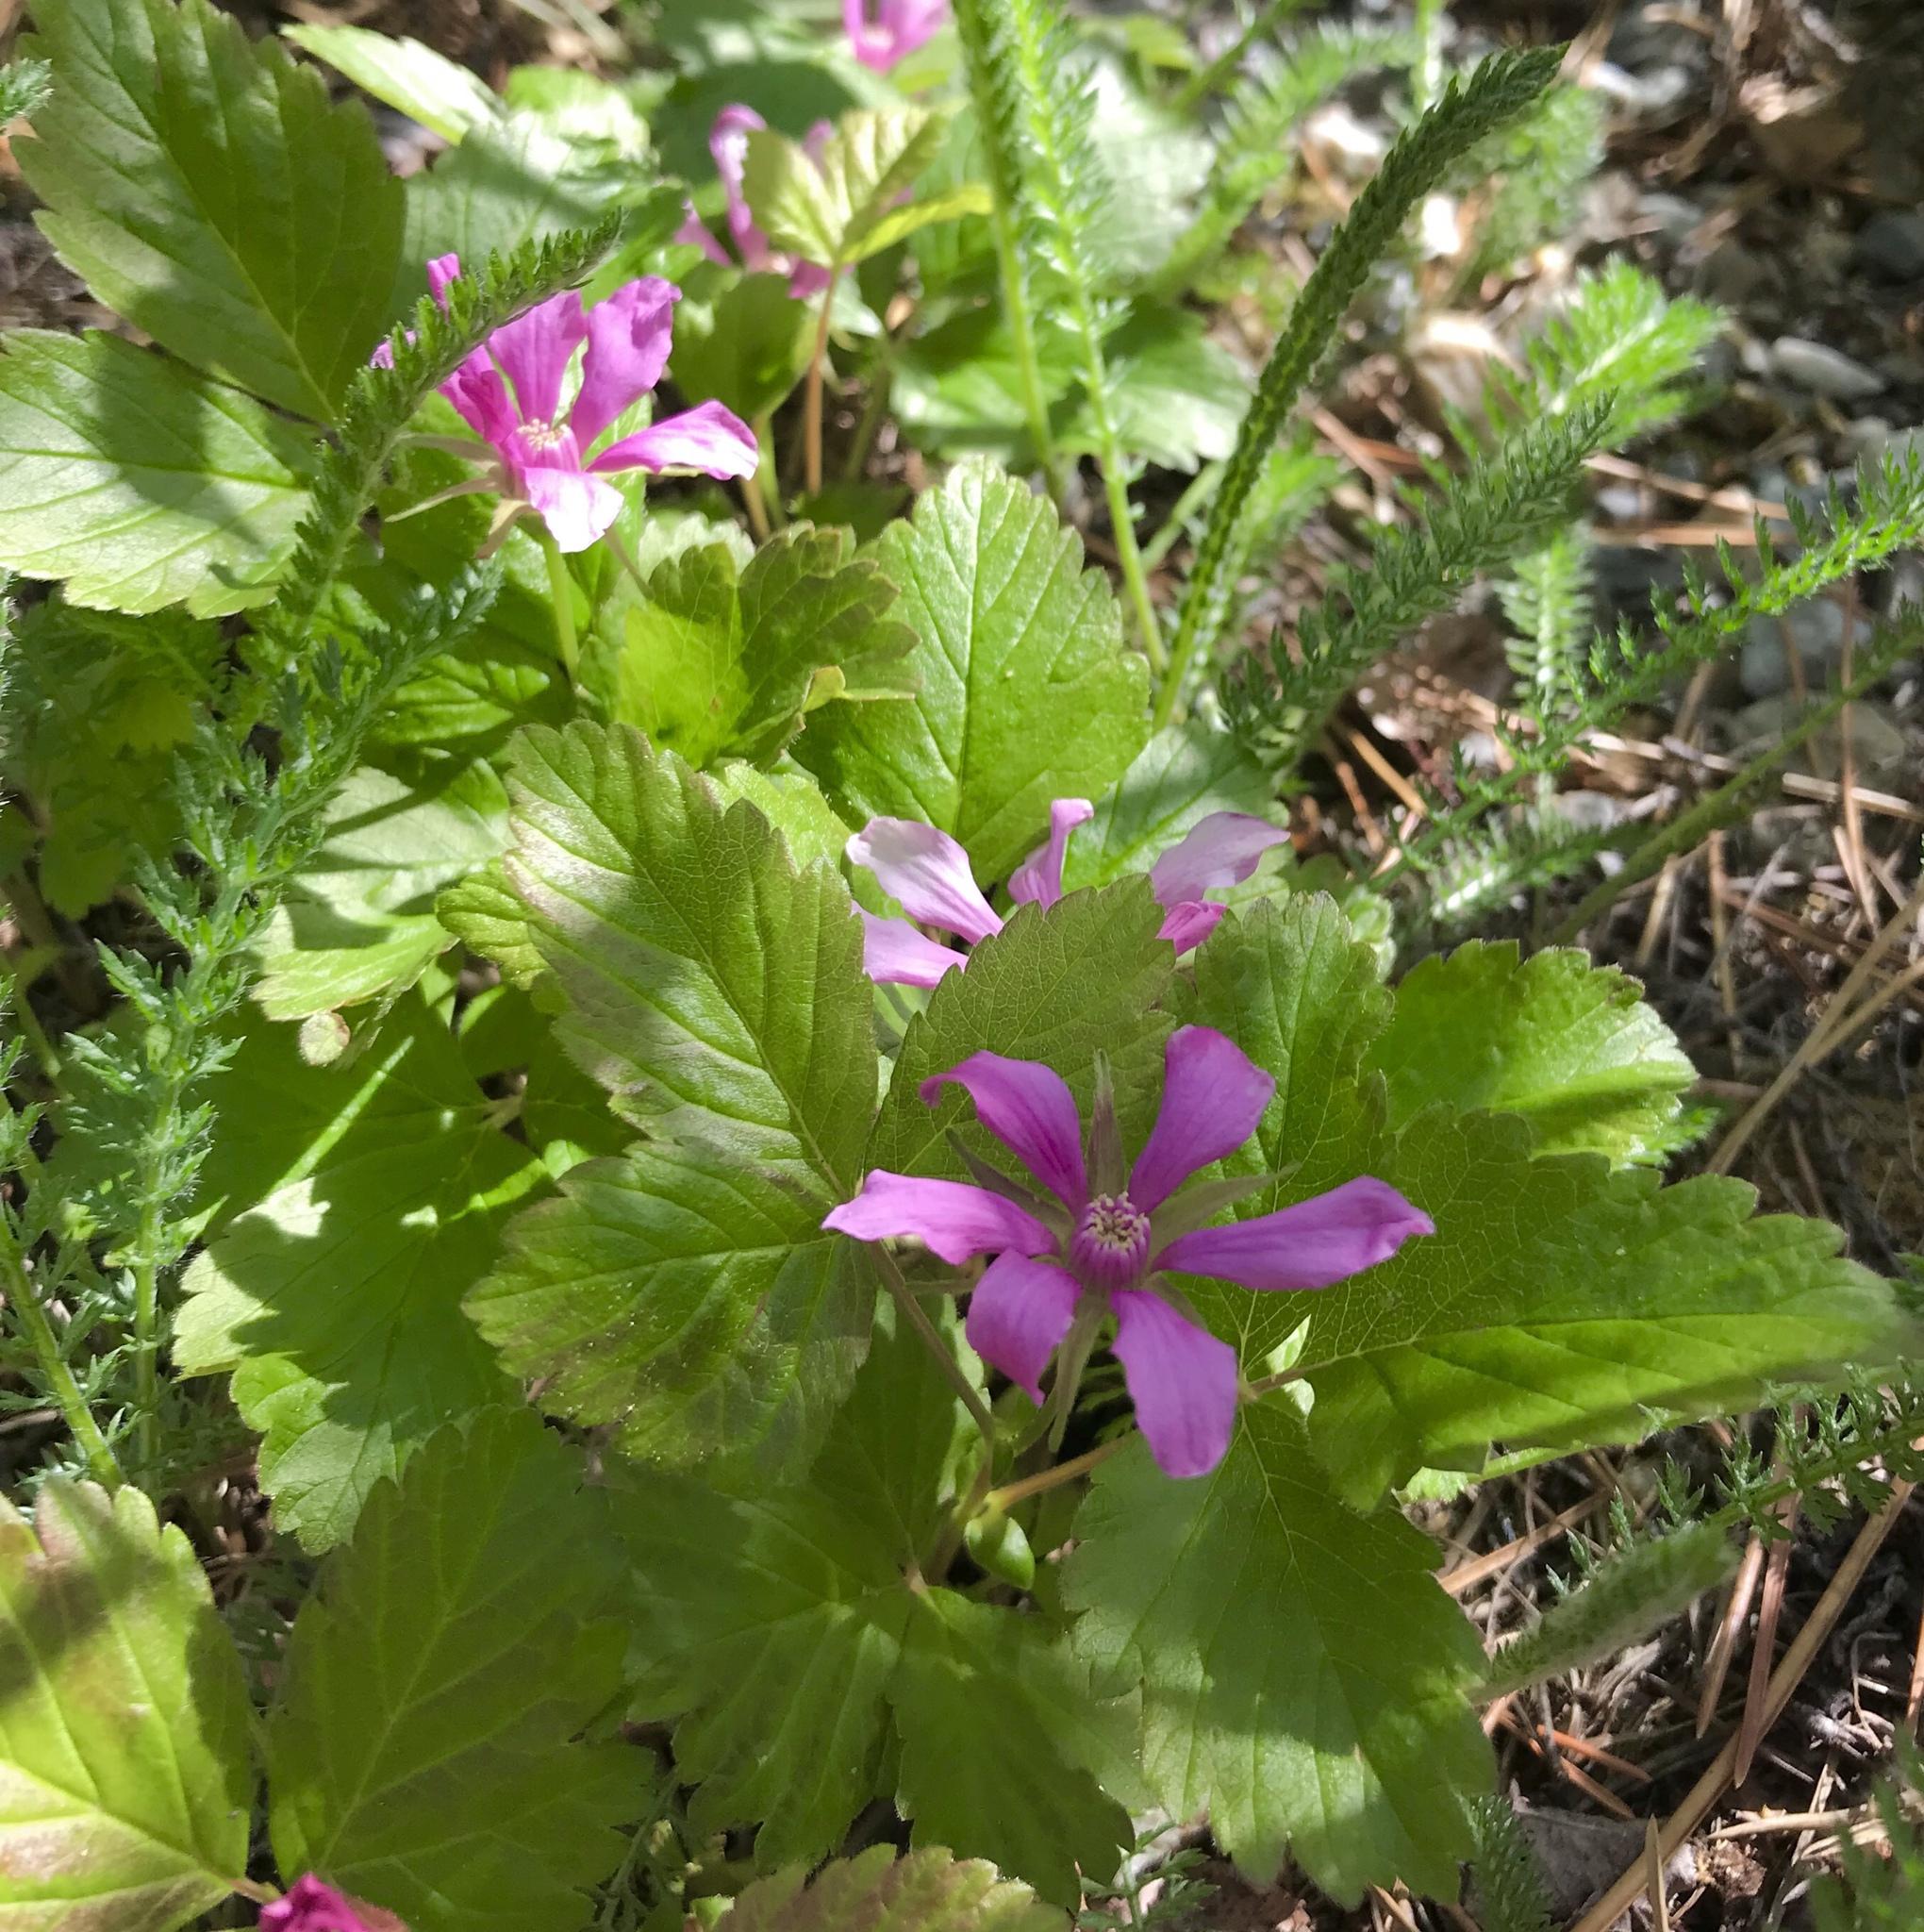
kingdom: Plantae
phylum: Tracheophyta
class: Magnoliopsida
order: Rosales
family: Rosaceae
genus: Rubus
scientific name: Rubus arcticus
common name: Arctic bramble
